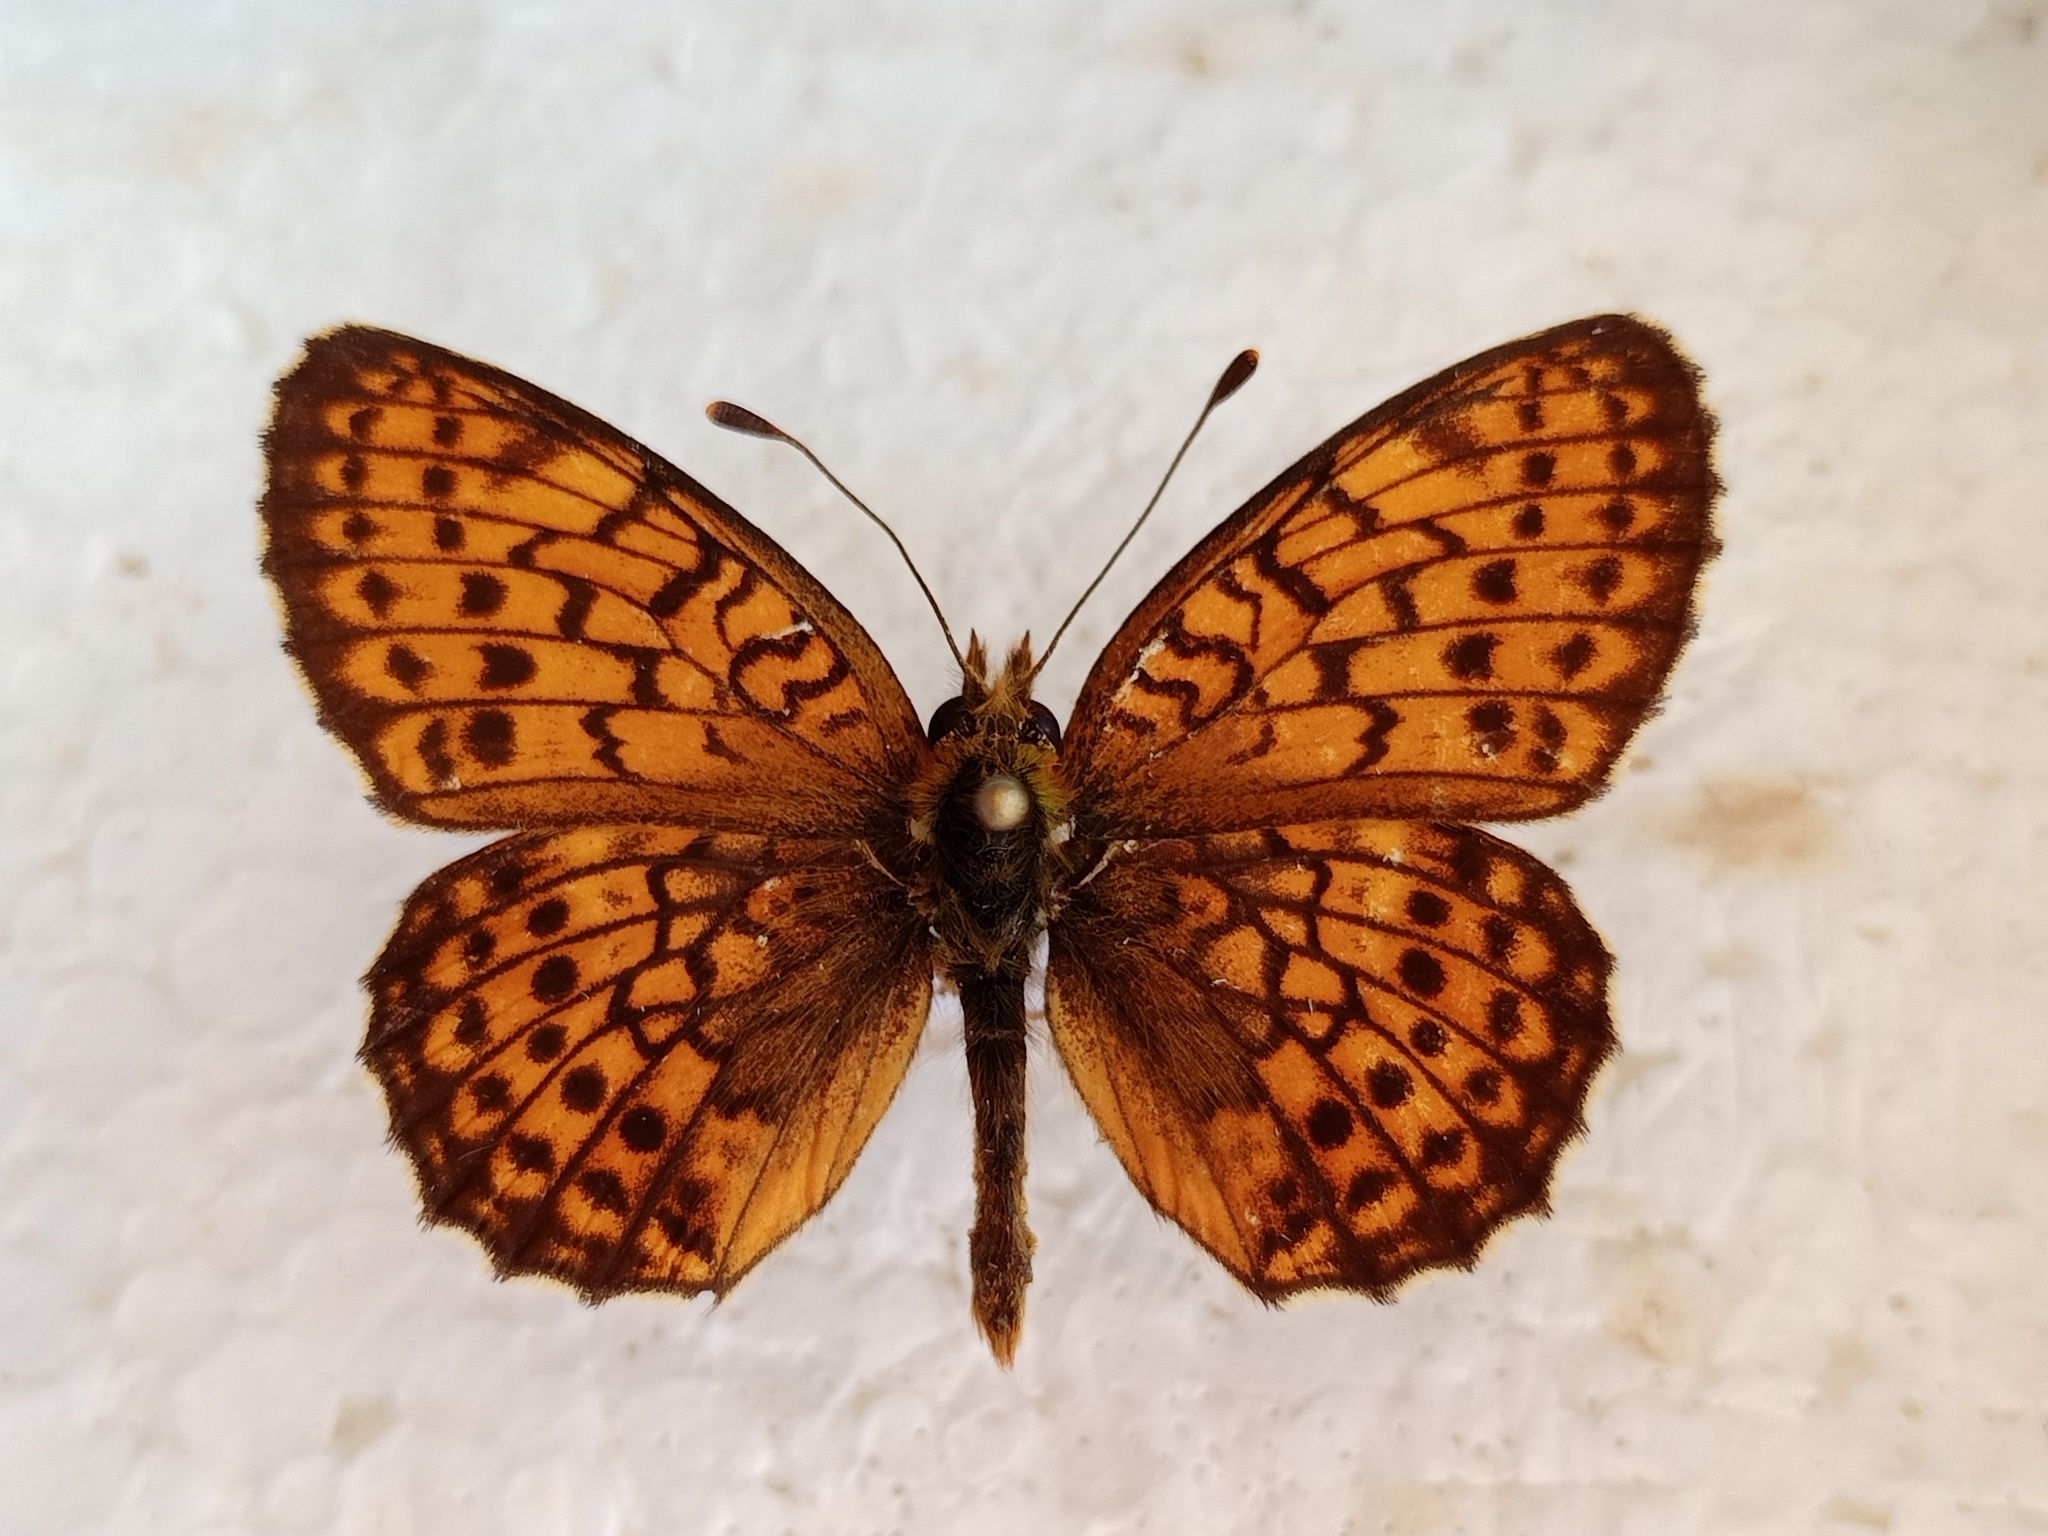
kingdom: Animalia
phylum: Arthropoda
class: Insecta
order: Lepidoptera
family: Nymphalidae
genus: Brenthis
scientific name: Brenthis hecate
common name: Twin-spot fritillary
